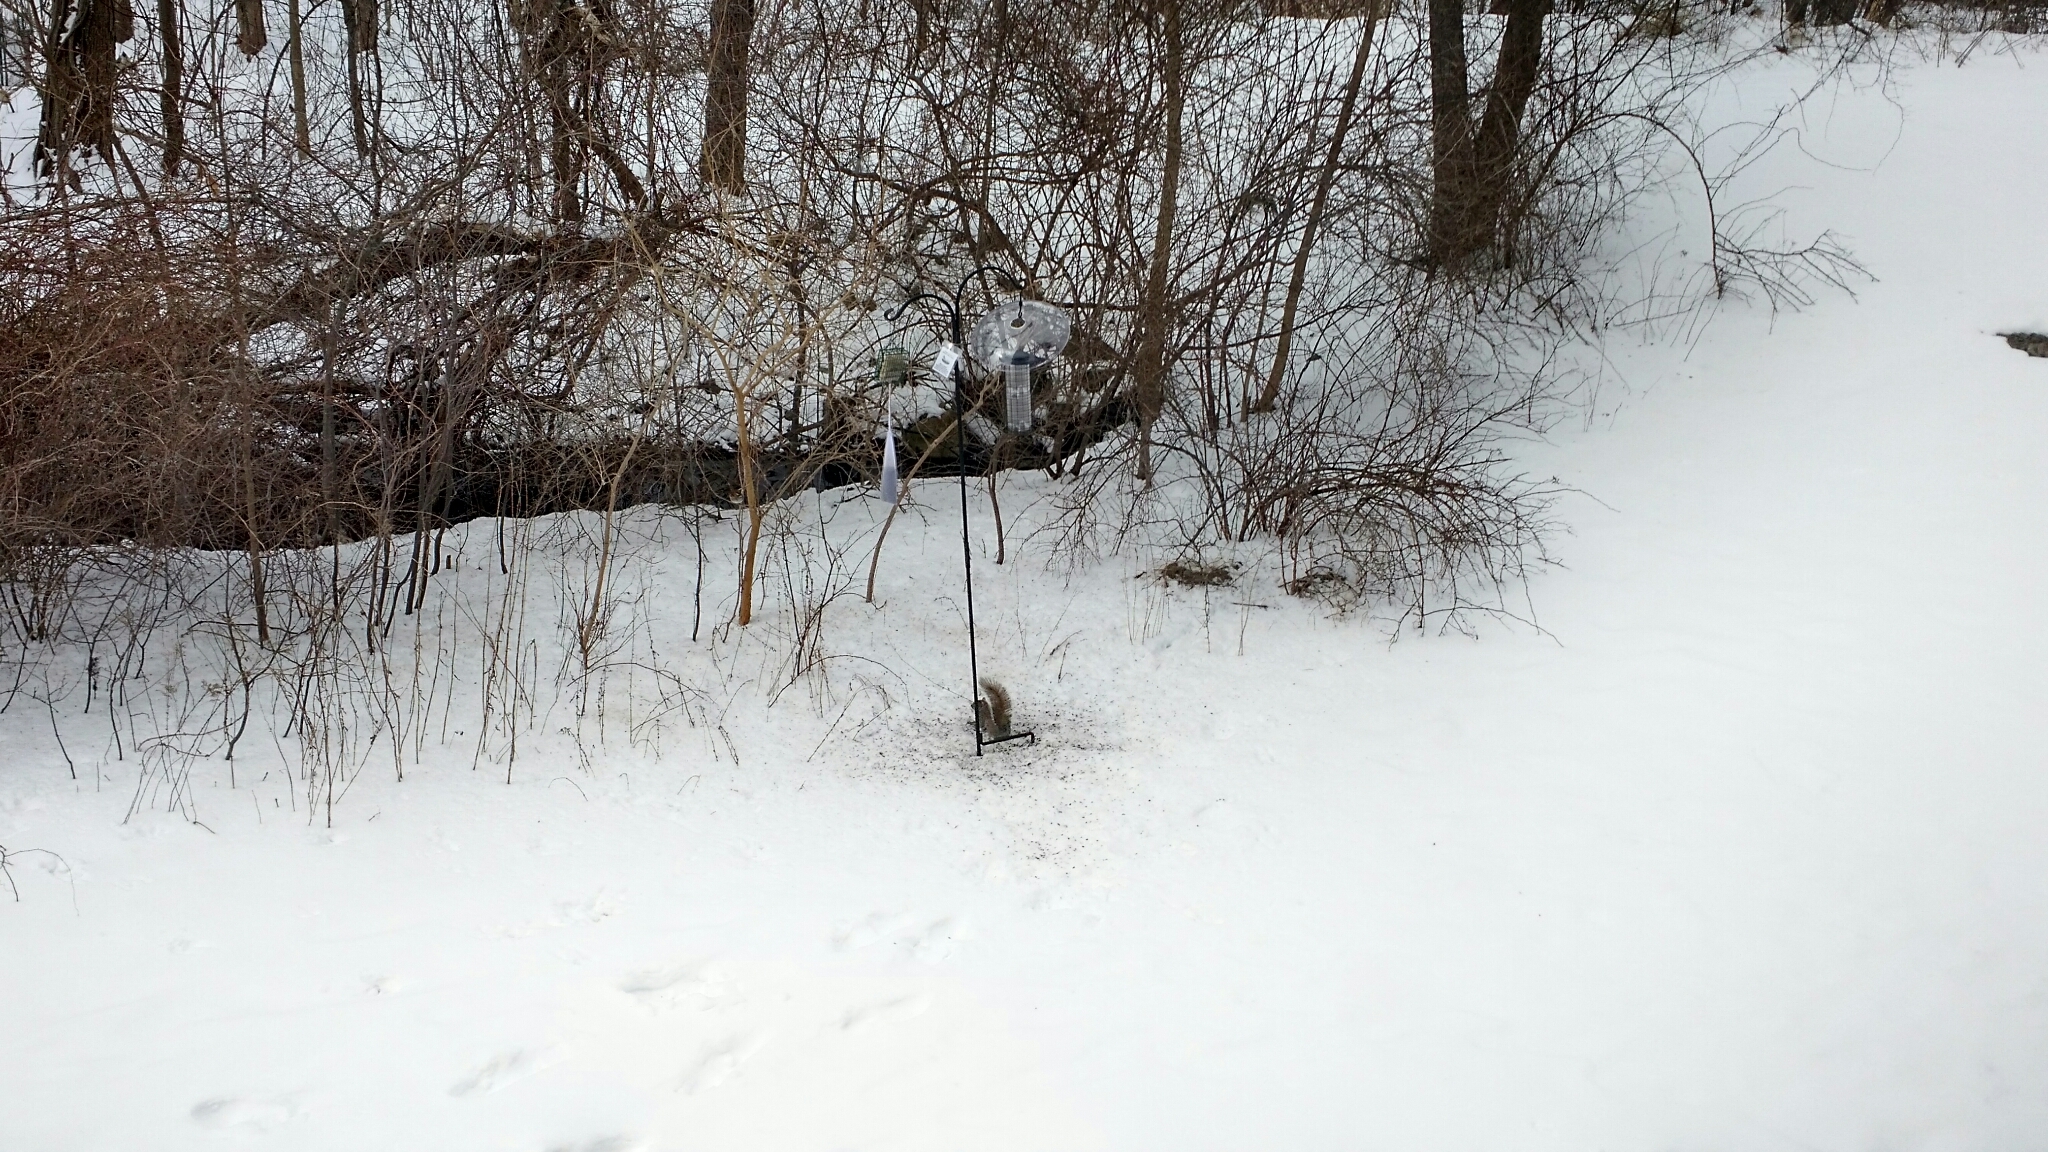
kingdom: Animalia
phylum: Chordata
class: Mammalia
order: Rodentia
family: Sciuridae
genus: Sciurus
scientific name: Sciurus carolinensis
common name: Eastern gray squirrel
